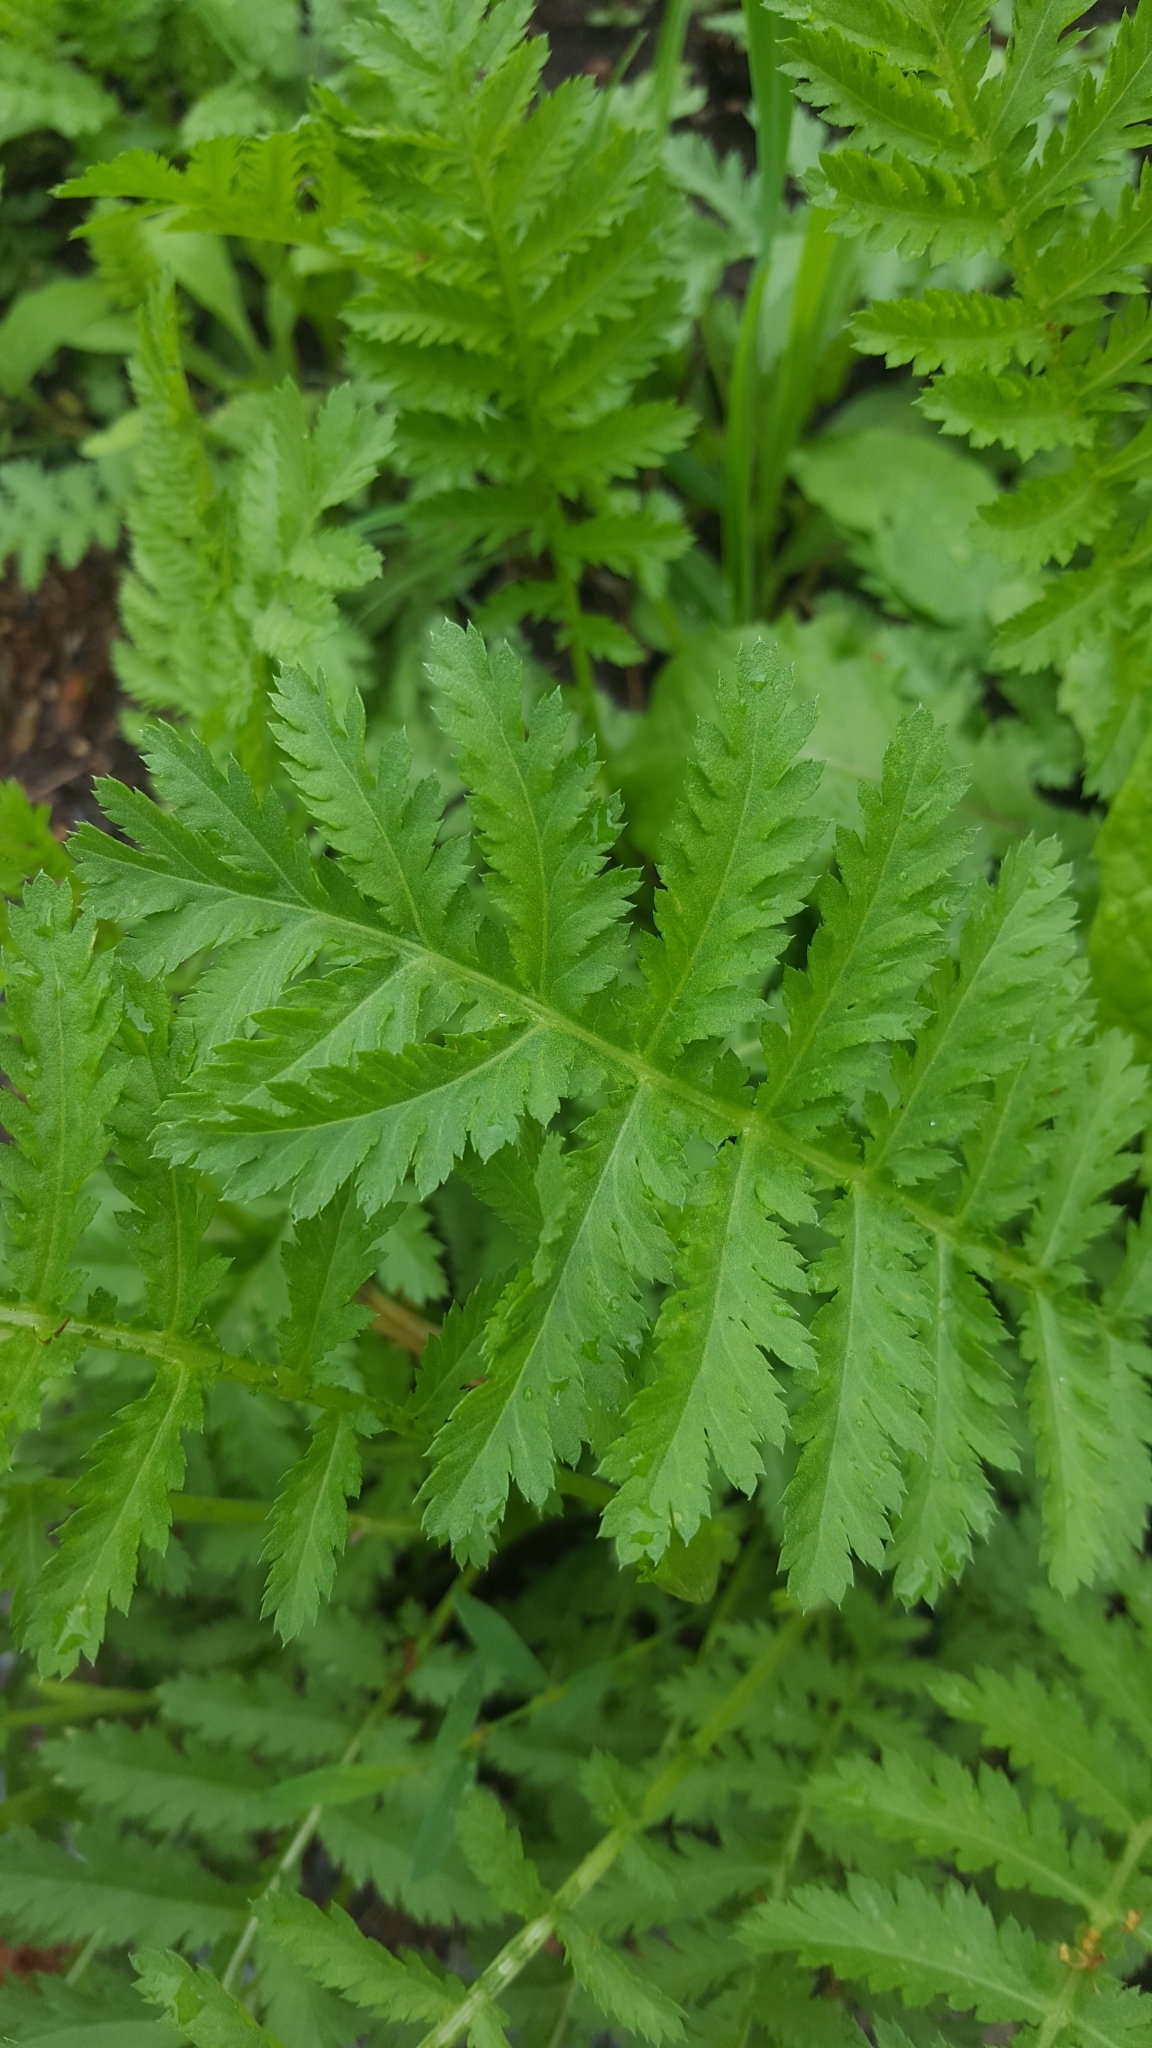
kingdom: Plantae
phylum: Tracheophyta
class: Magnoliopsida
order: Asterales
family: Asteraceae
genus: Tanacetum
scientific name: Tanacetum vulgare
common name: Common tansy
